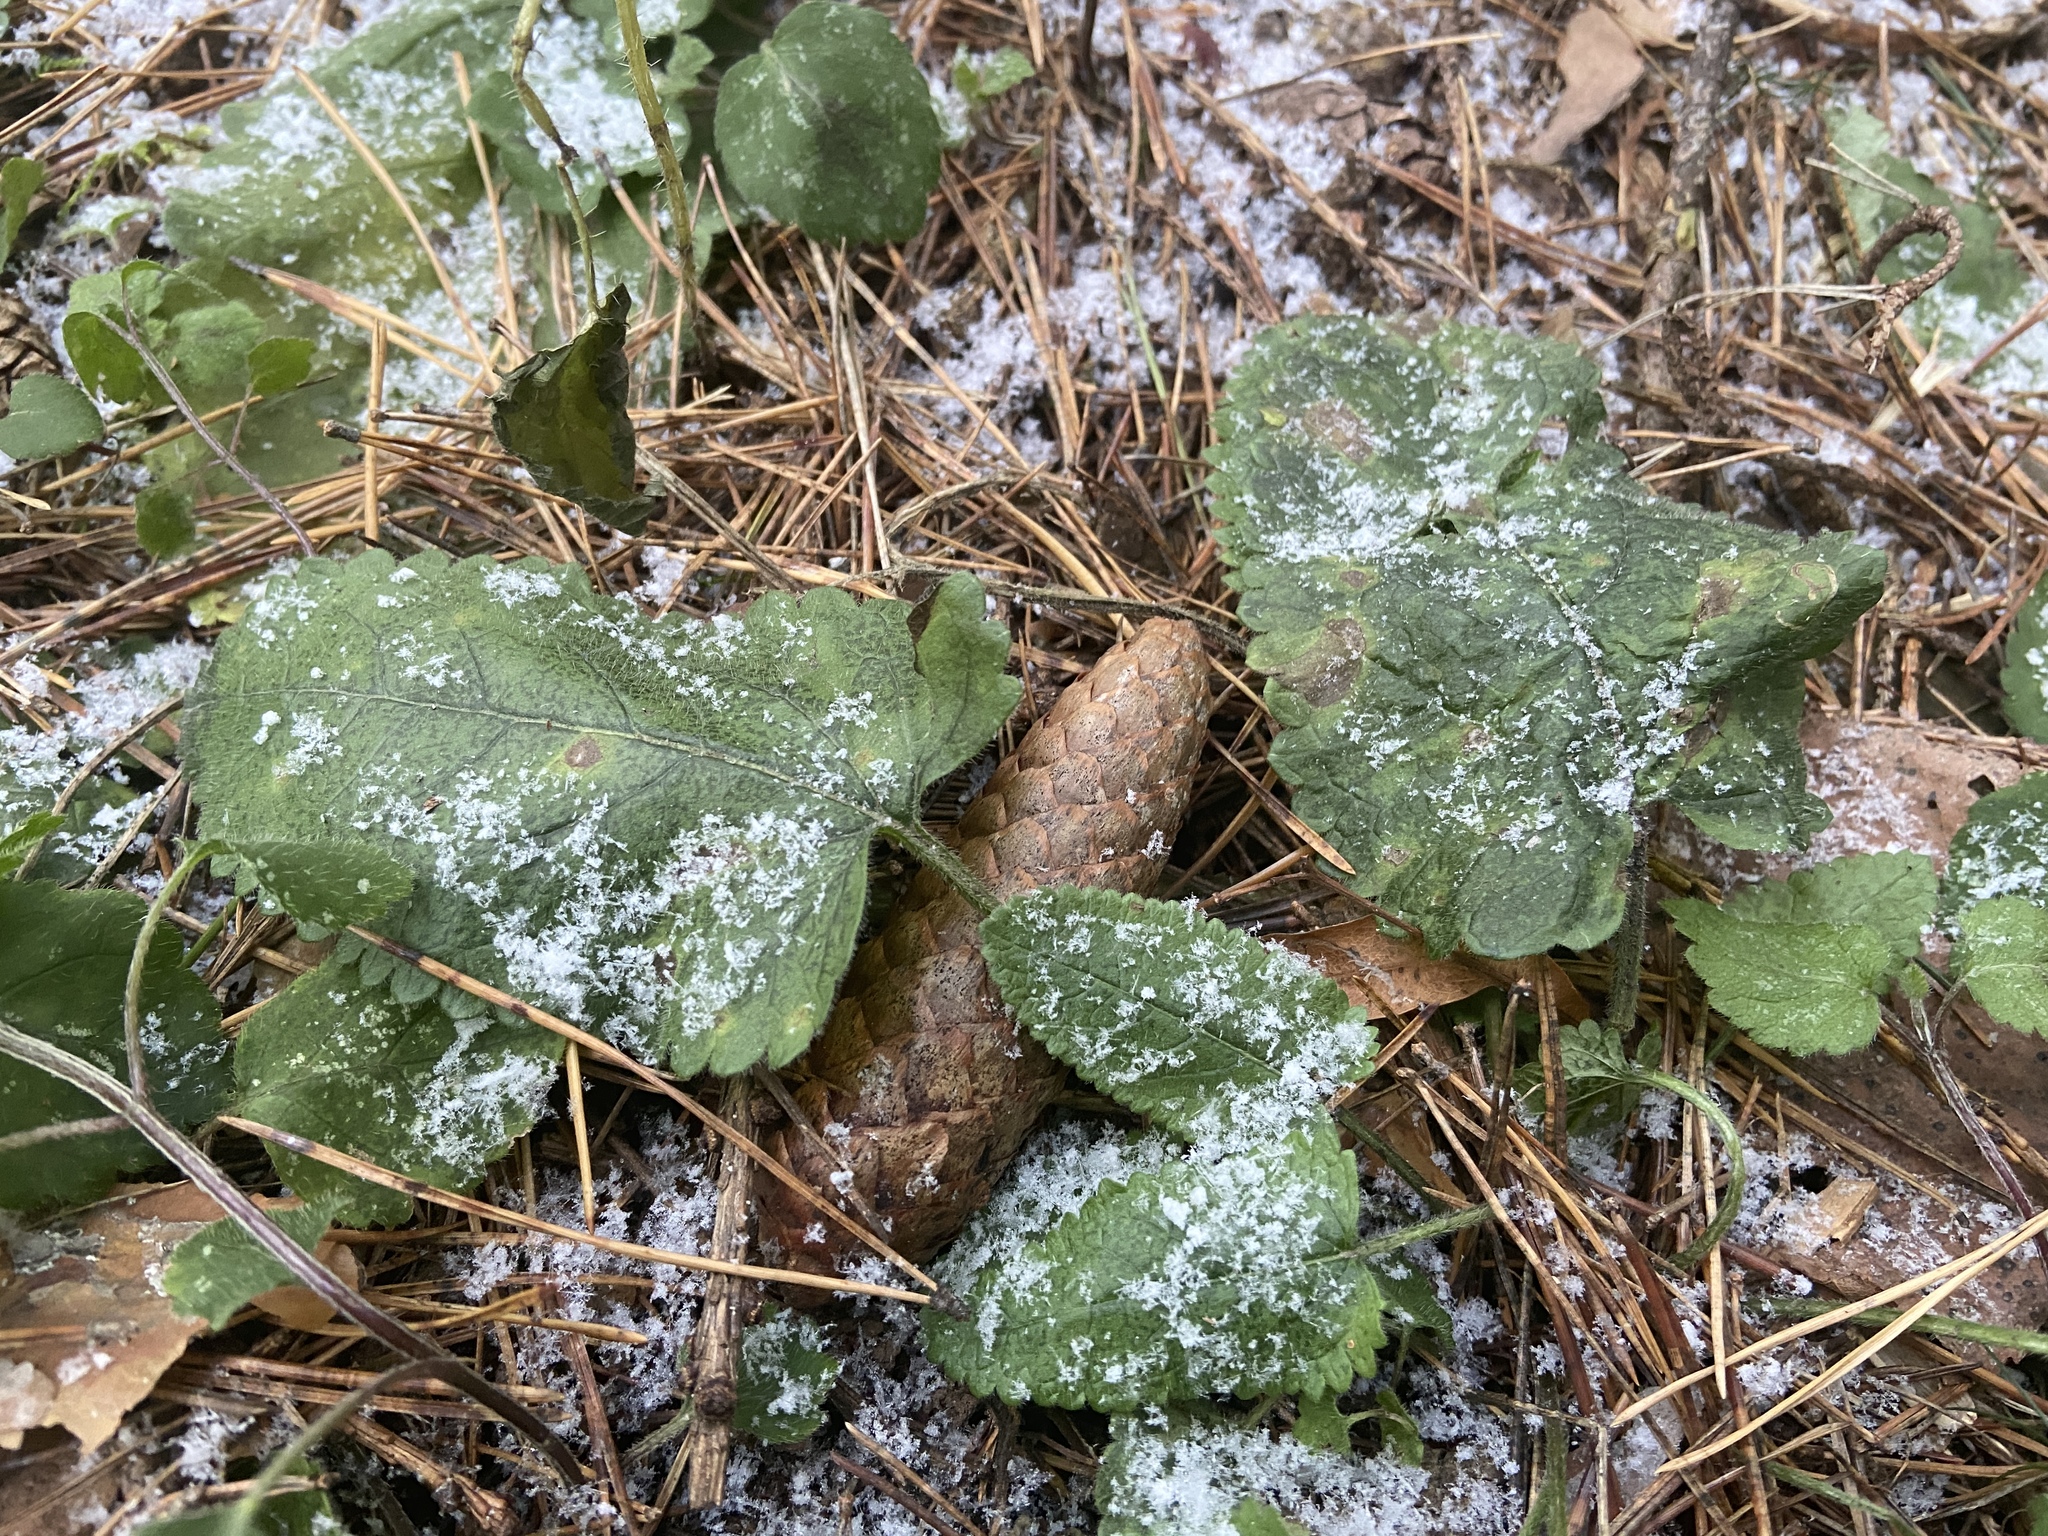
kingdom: Plantae
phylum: Tracheophyta
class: Magnoliopsida
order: Lamiales
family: Lamiaceae
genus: Betonica
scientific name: Betonica officinalis
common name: Bishop's-wort
